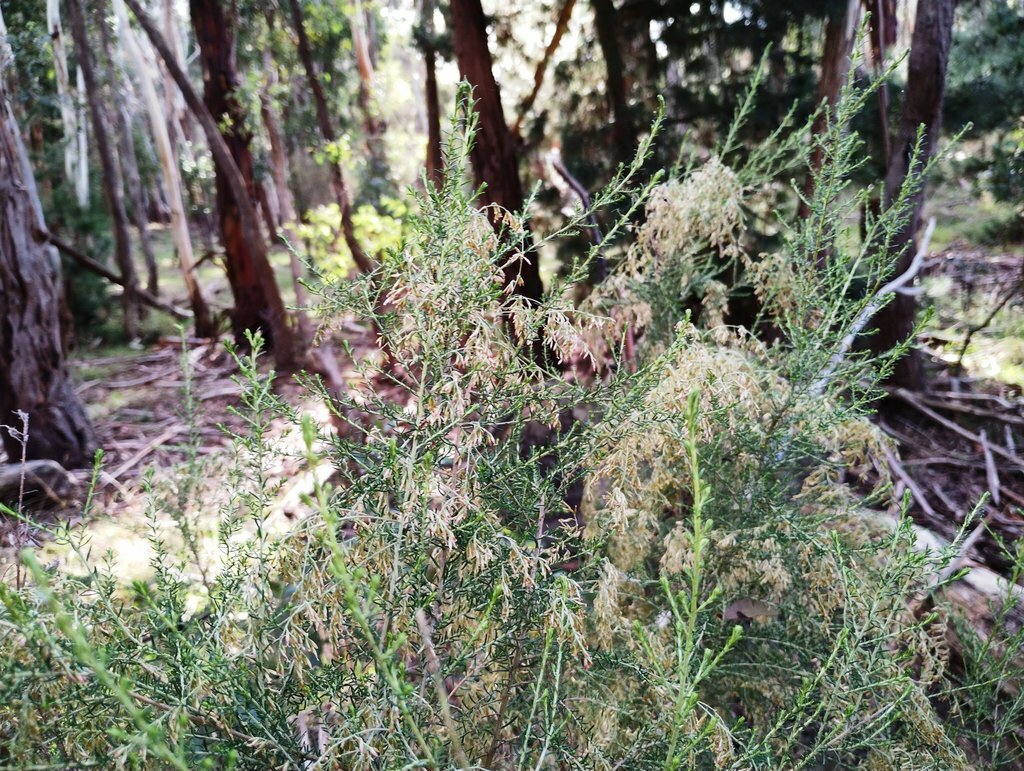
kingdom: Plantae
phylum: Tracheophyta
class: Magnoliopsida
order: Asterales
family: Asteraceae
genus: Cassinia
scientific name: Cassinia sifton
